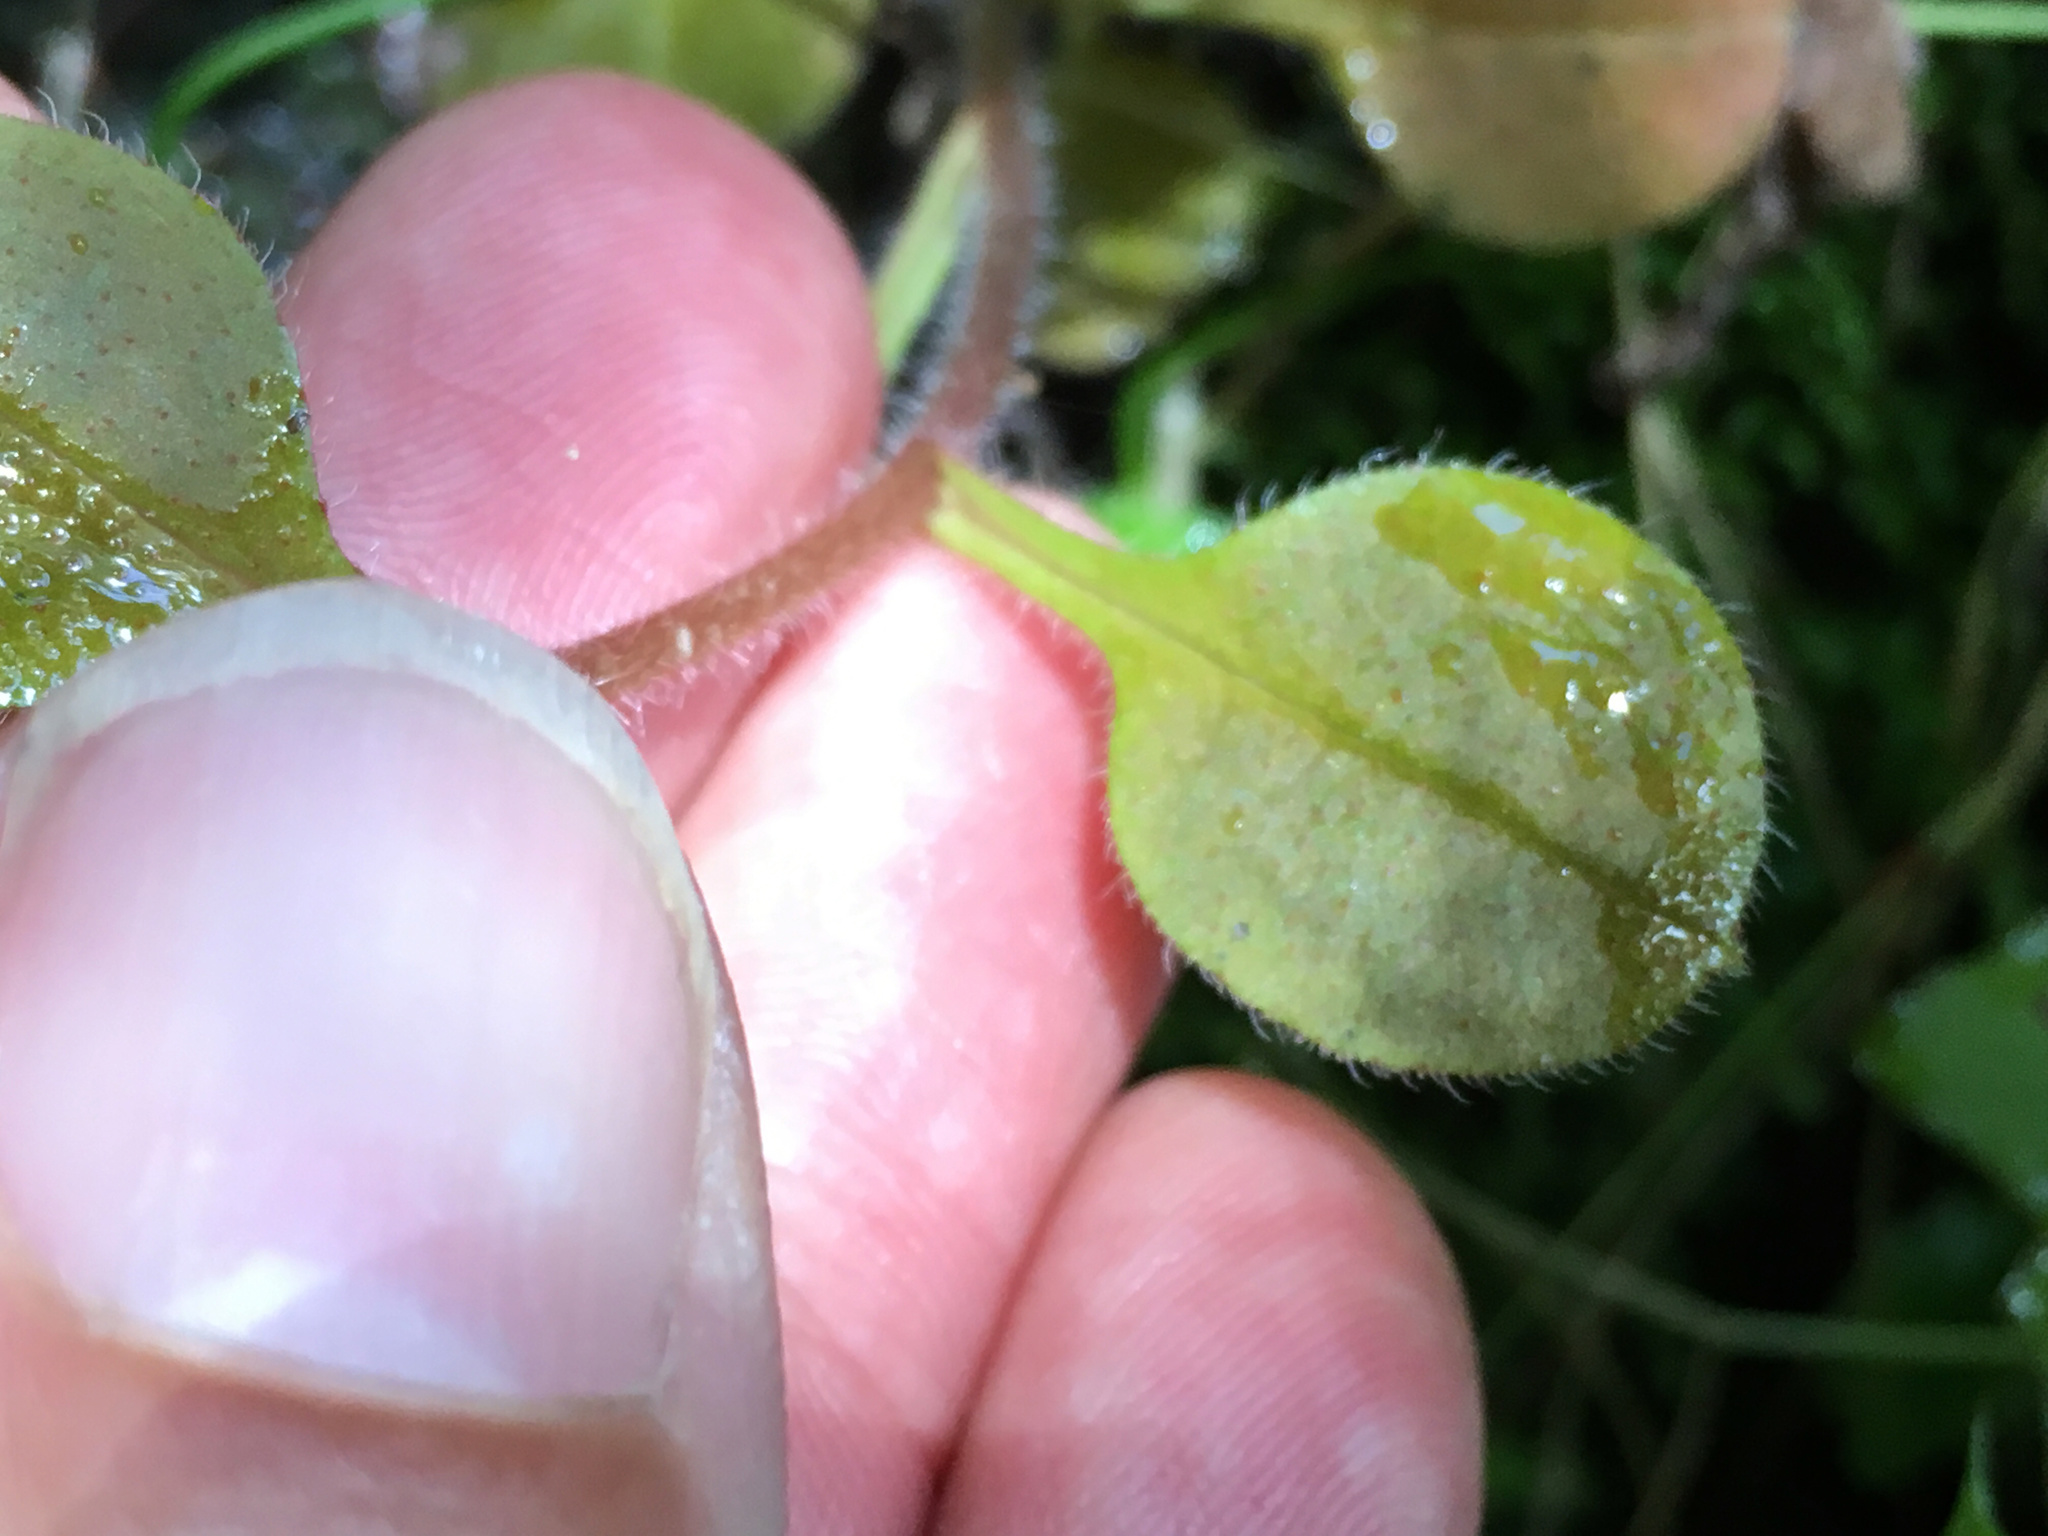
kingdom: Plantae
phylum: Tracheophyta
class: Magnoliopsida
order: Boraginales
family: Boraginaceae
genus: Myosotis
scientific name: Myosotis forsteri
